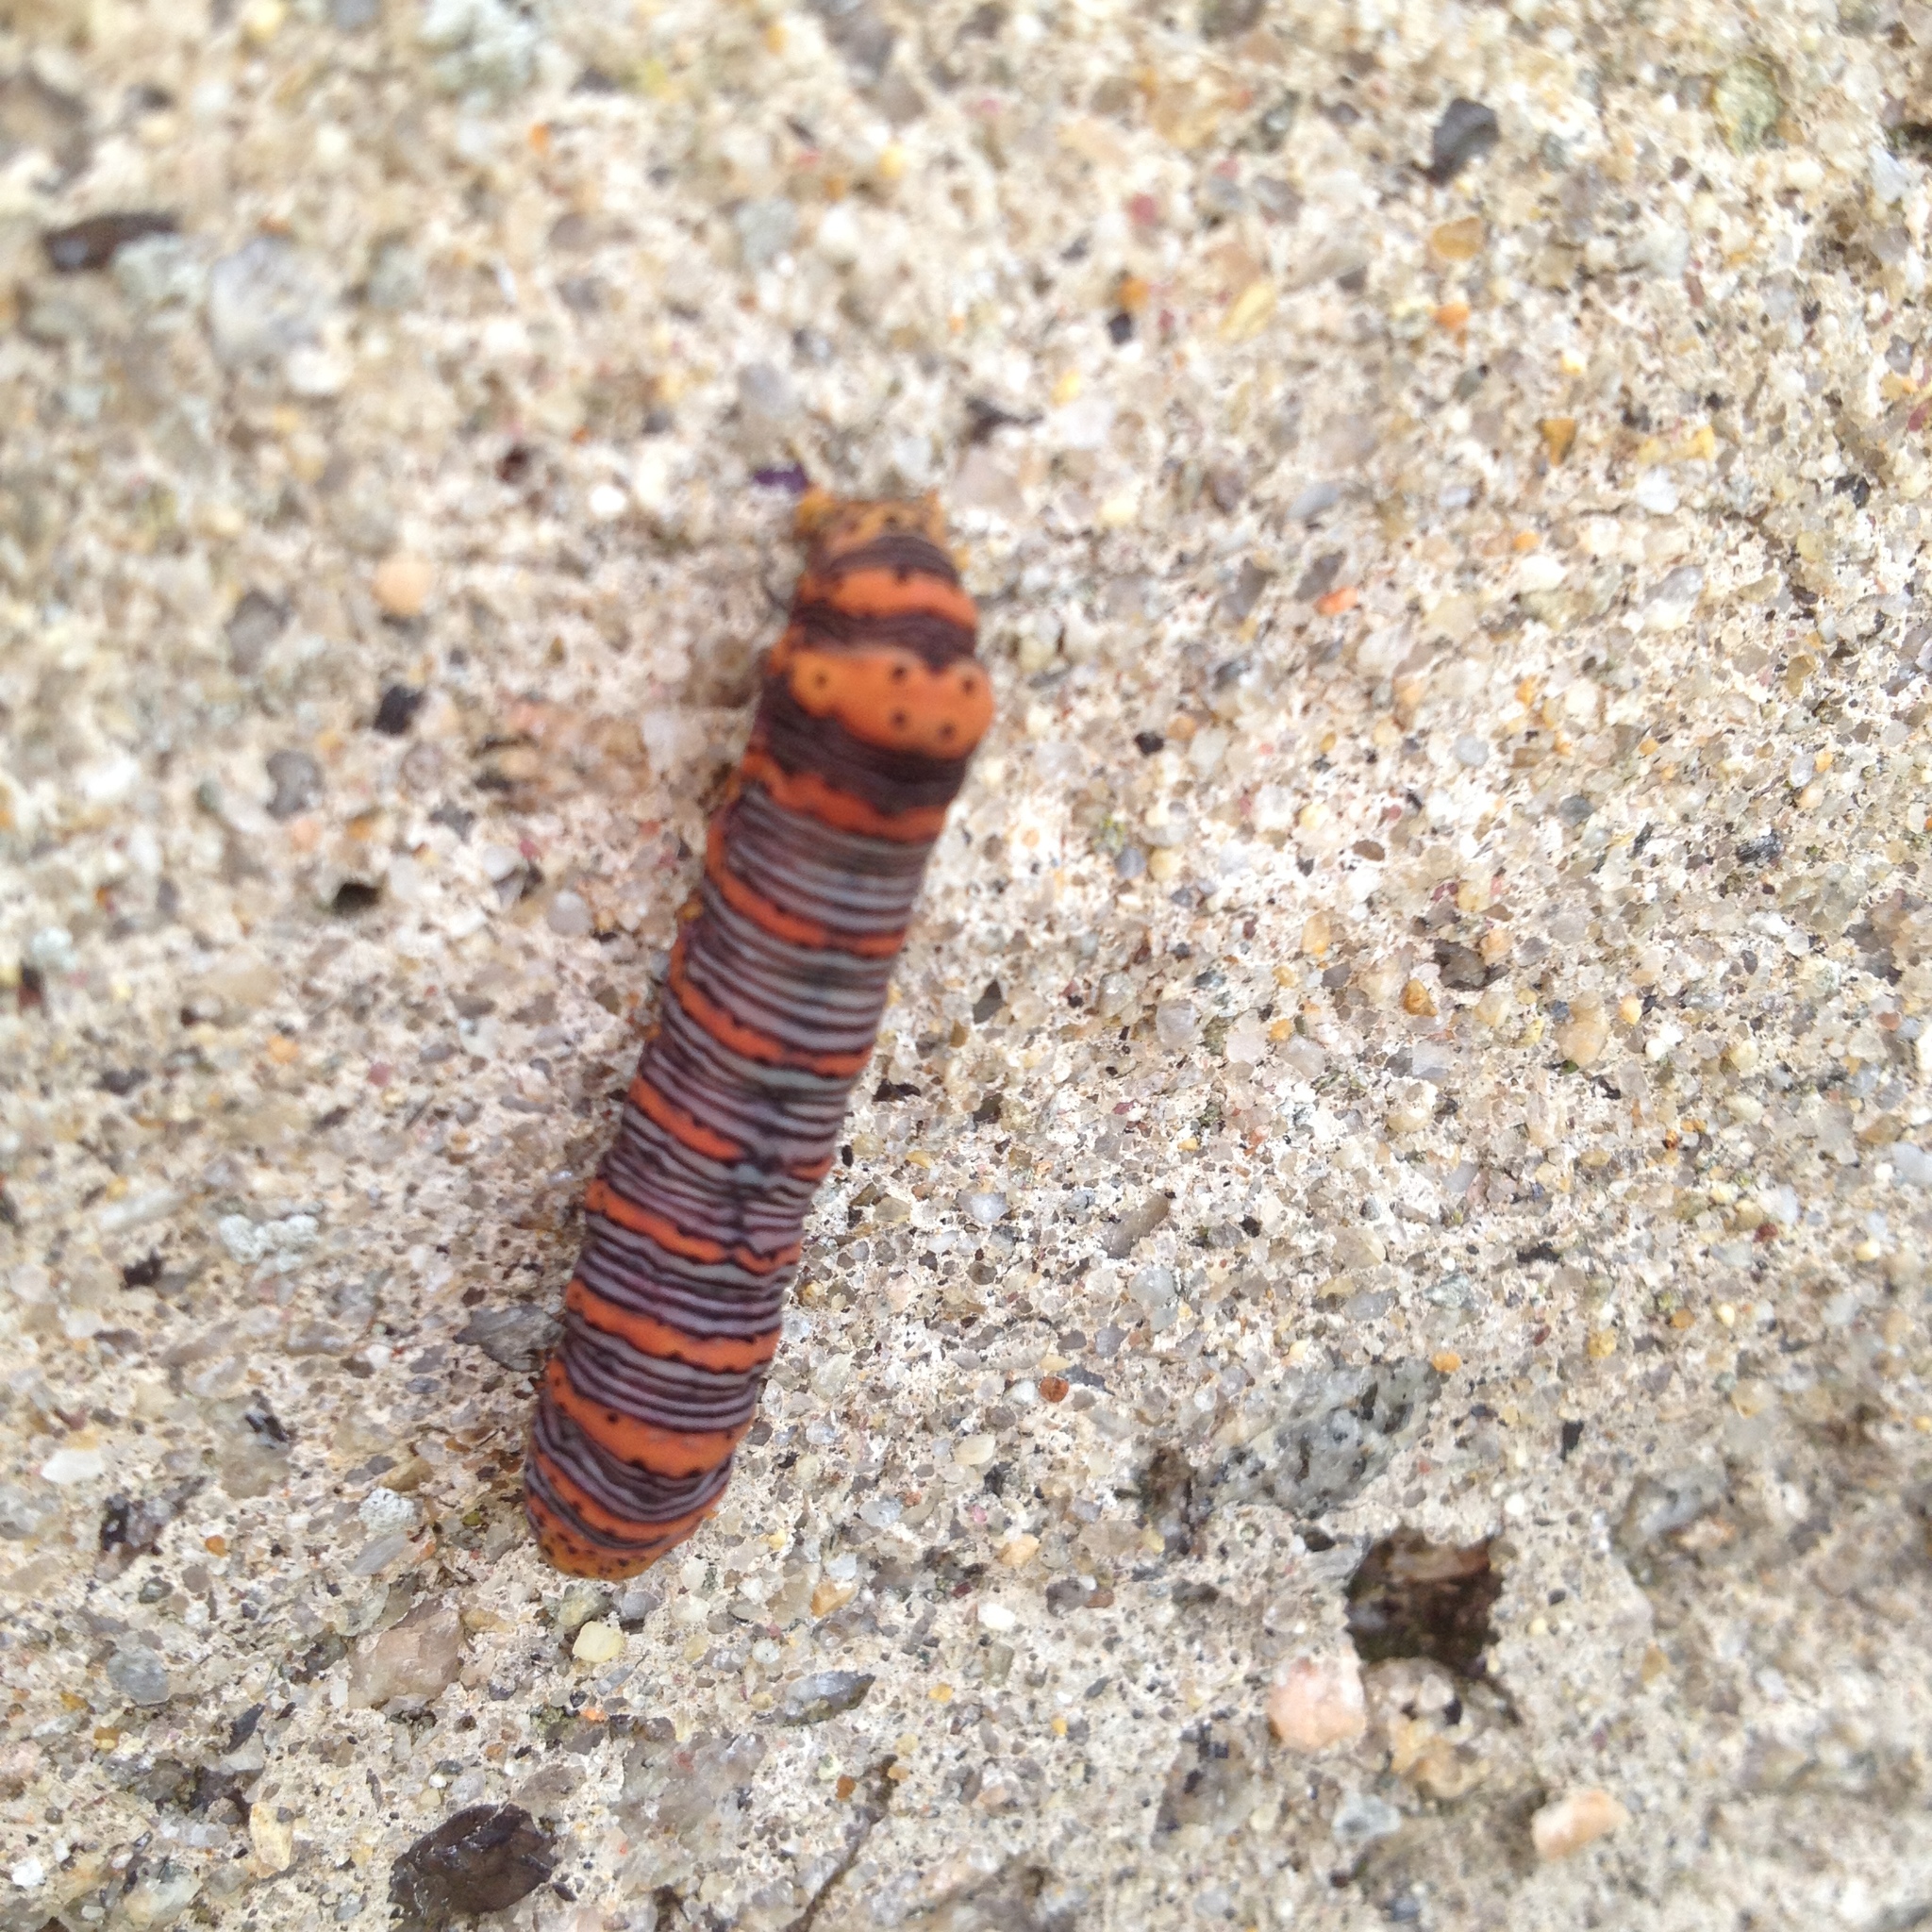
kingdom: Animalia
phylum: Arthropoda
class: Insecta
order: Lepidoptera
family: Noctuidae
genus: Eudryas
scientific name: Eudryas grata
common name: Beautiful wood-nymph
